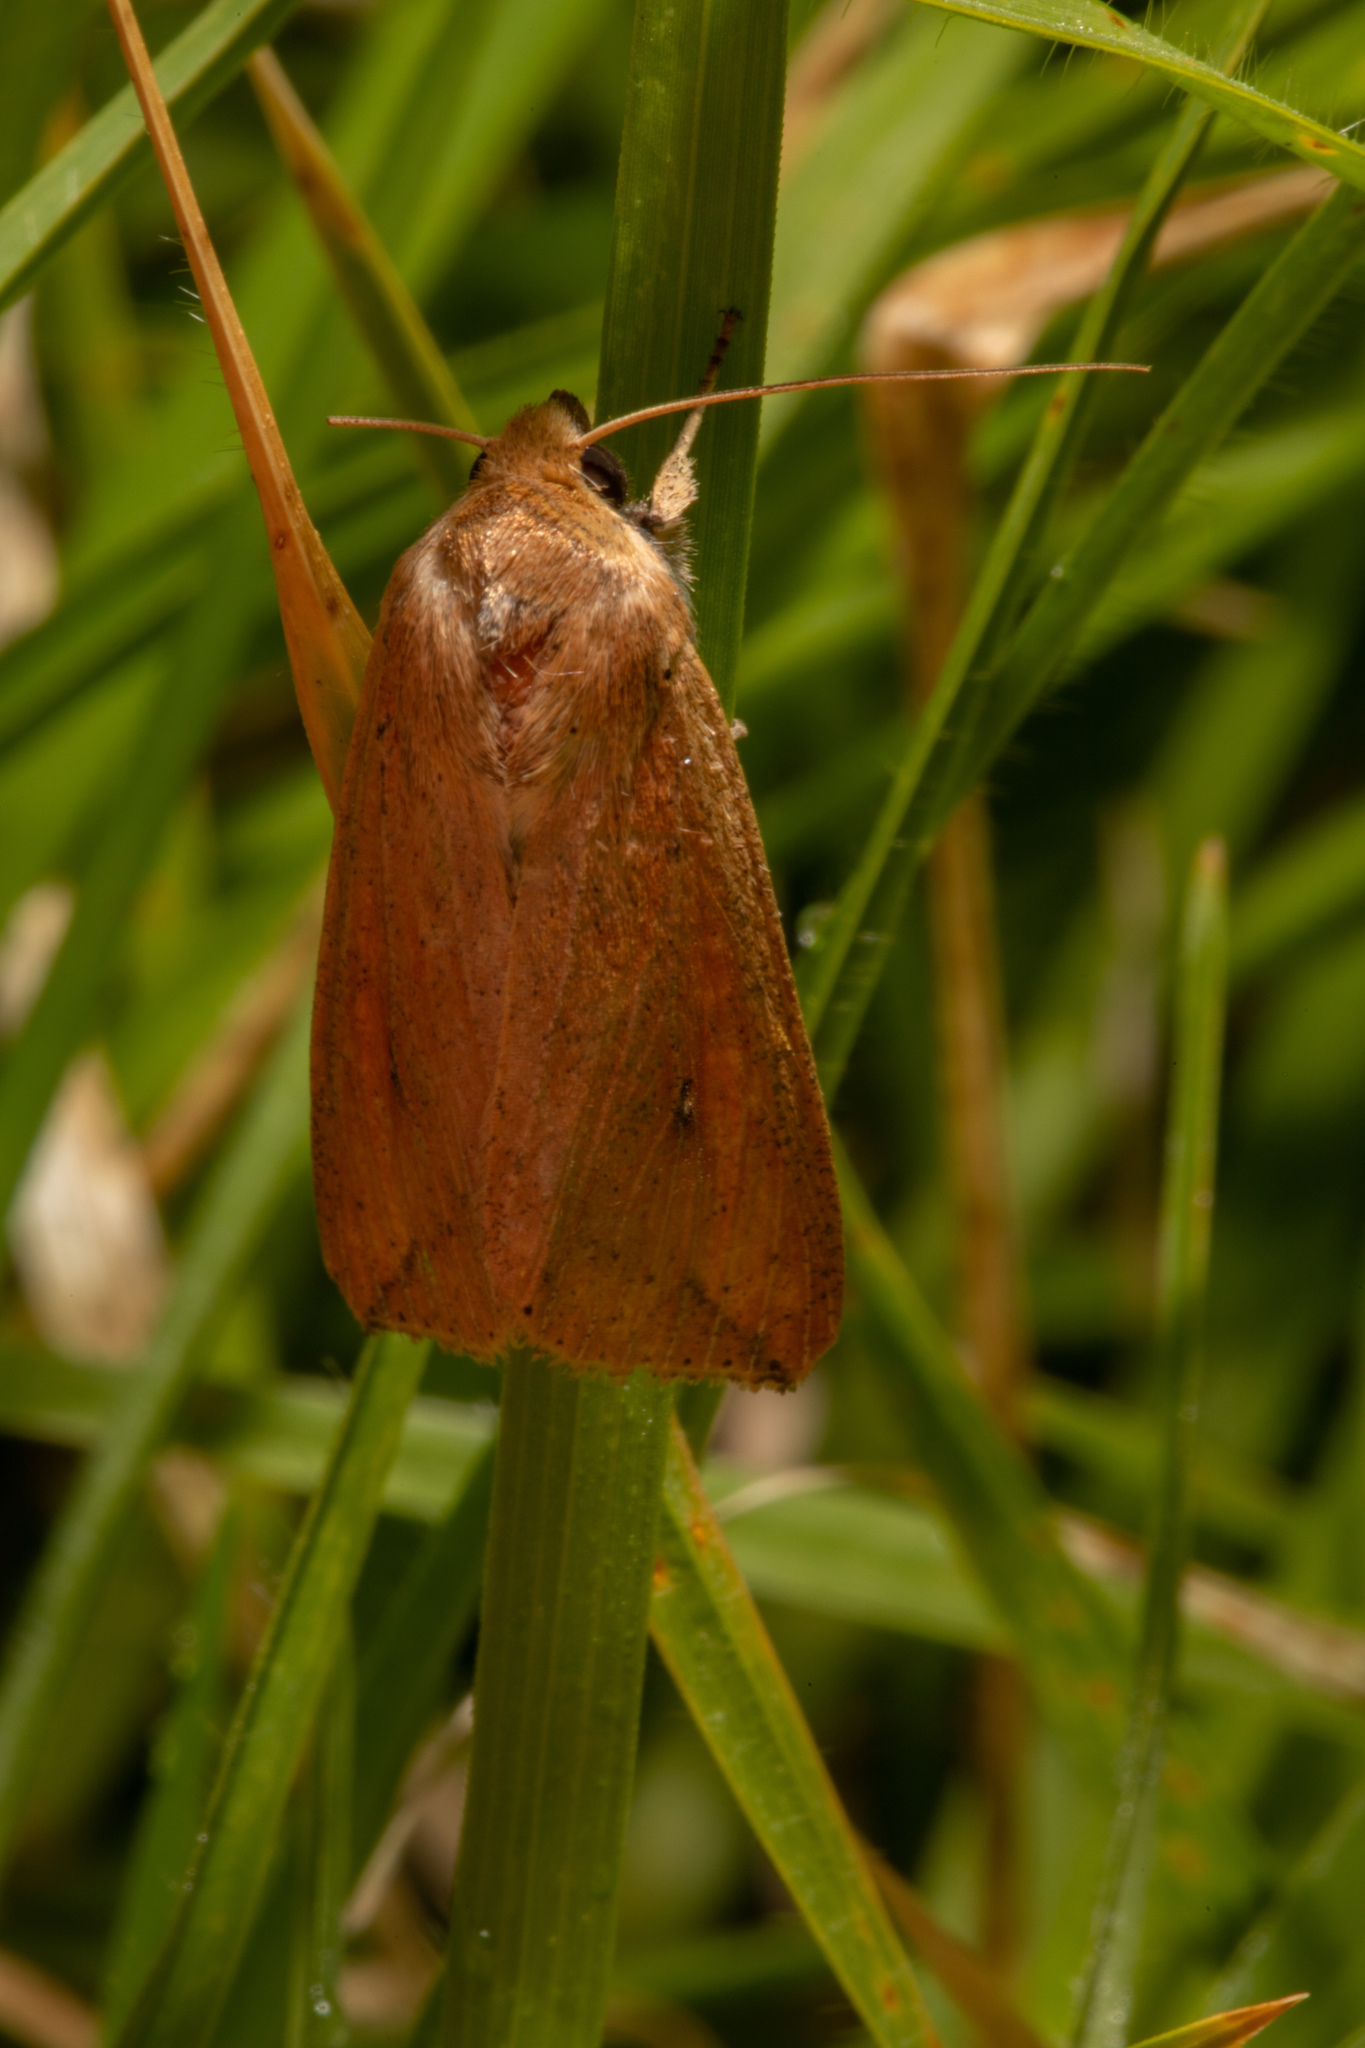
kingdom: Animalia
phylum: Arthropoda
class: Insecta
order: Lepidoptera
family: Noctuidae
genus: Mythimna
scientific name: Mythimna separata
